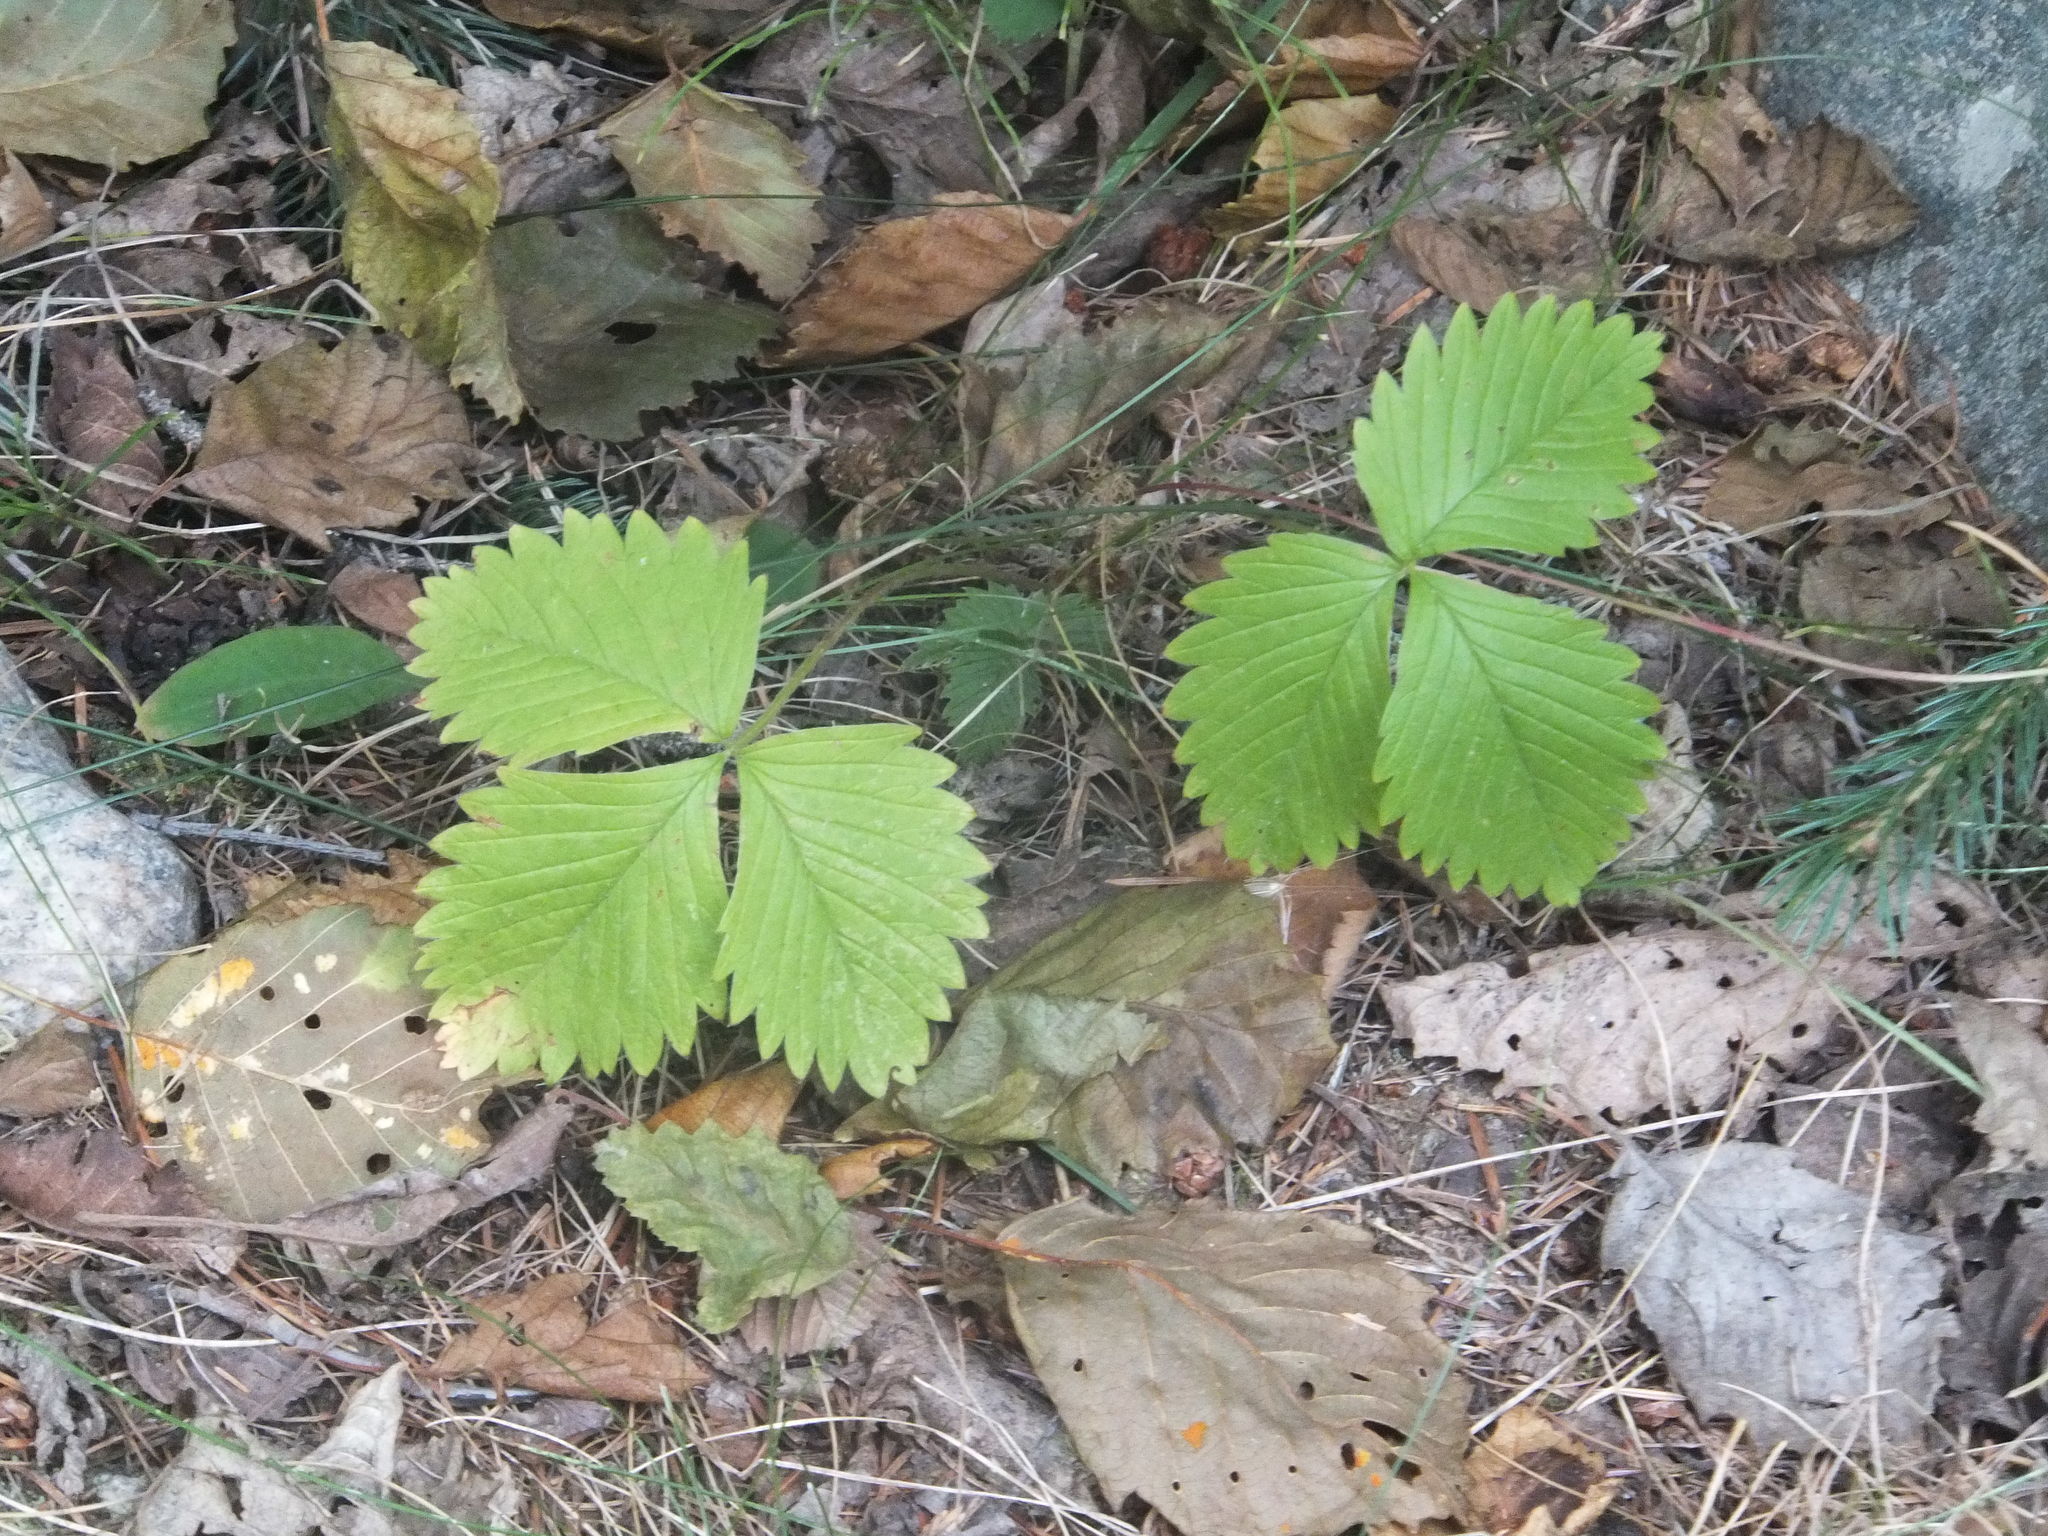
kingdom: Plantae
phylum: Tracheophyta
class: Magnoliopsida
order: Rosales
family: Rosaceae
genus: Fragaria
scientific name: Fragaria vesca
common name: Wild strawberry
